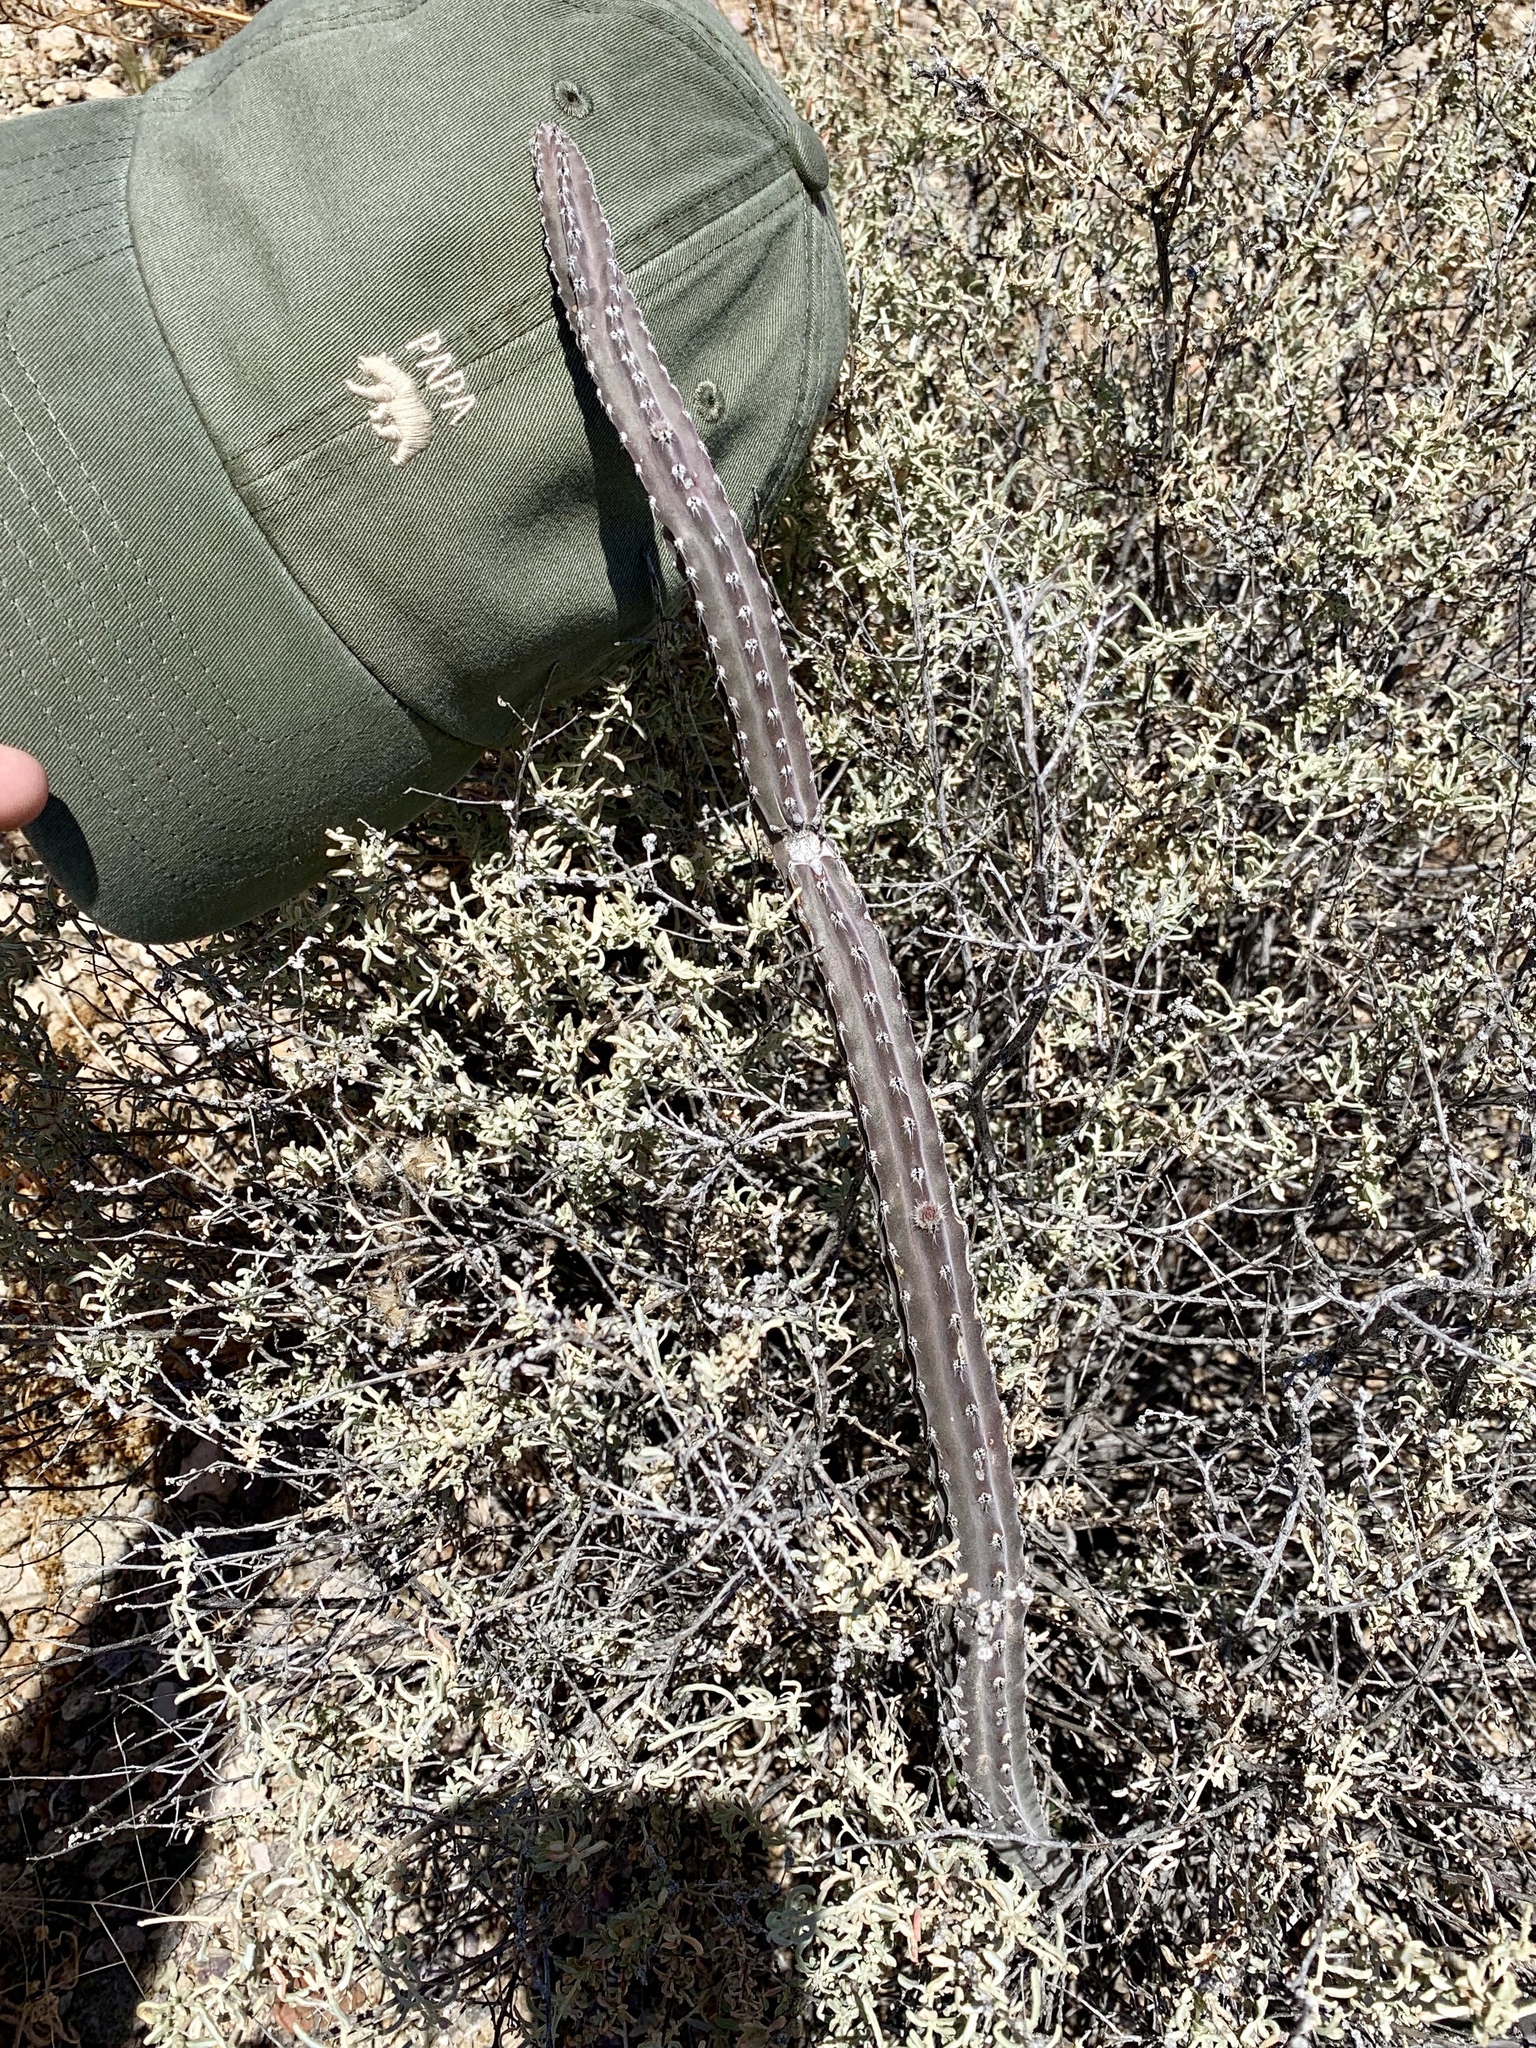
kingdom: Plantae
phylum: Tracheophyta
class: Magnoliopsida
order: Caryophyllales
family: Cactaceae
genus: Peniocereus
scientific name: Peniocereus greggii
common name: Desert night-blooming cereus
